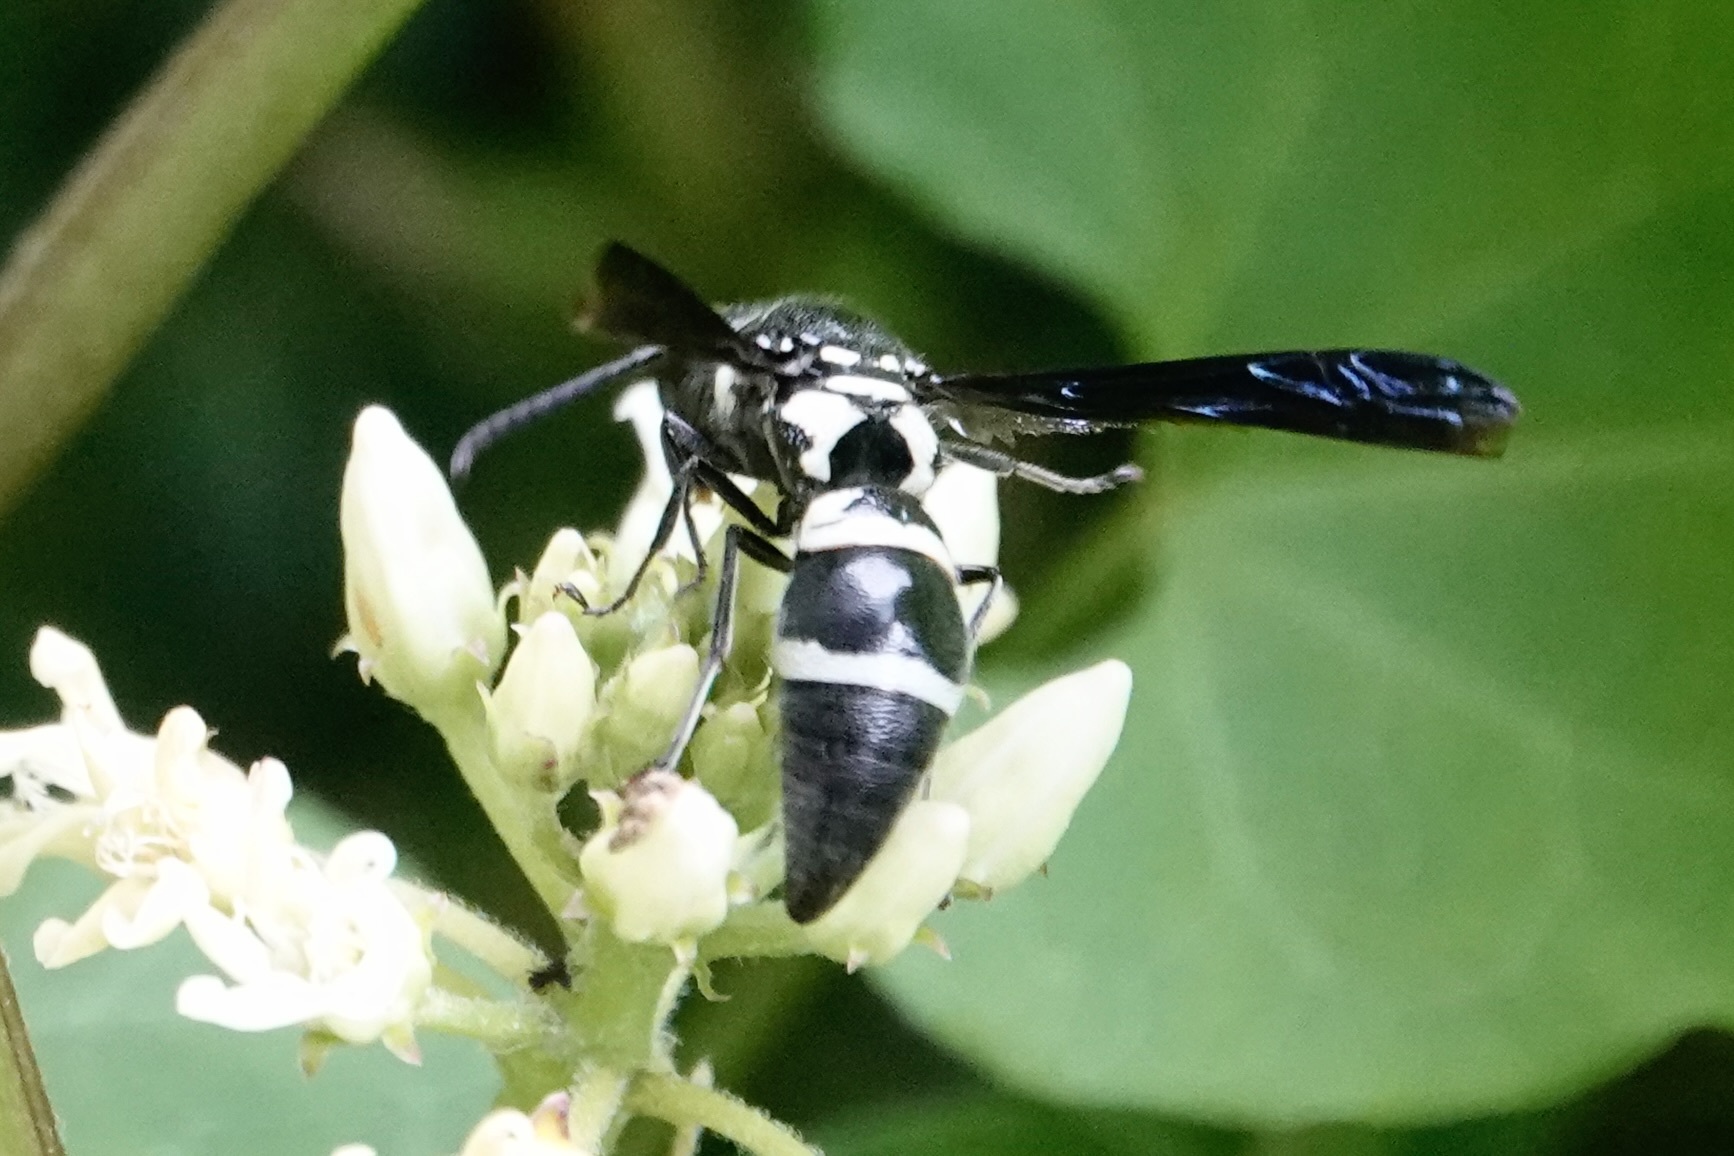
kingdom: Animalia
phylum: Arthropoda
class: Insecta
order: Hymenoptera
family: Eumenidae
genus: Pseudodynerus
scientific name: Pseudodynerus quadrisectus
